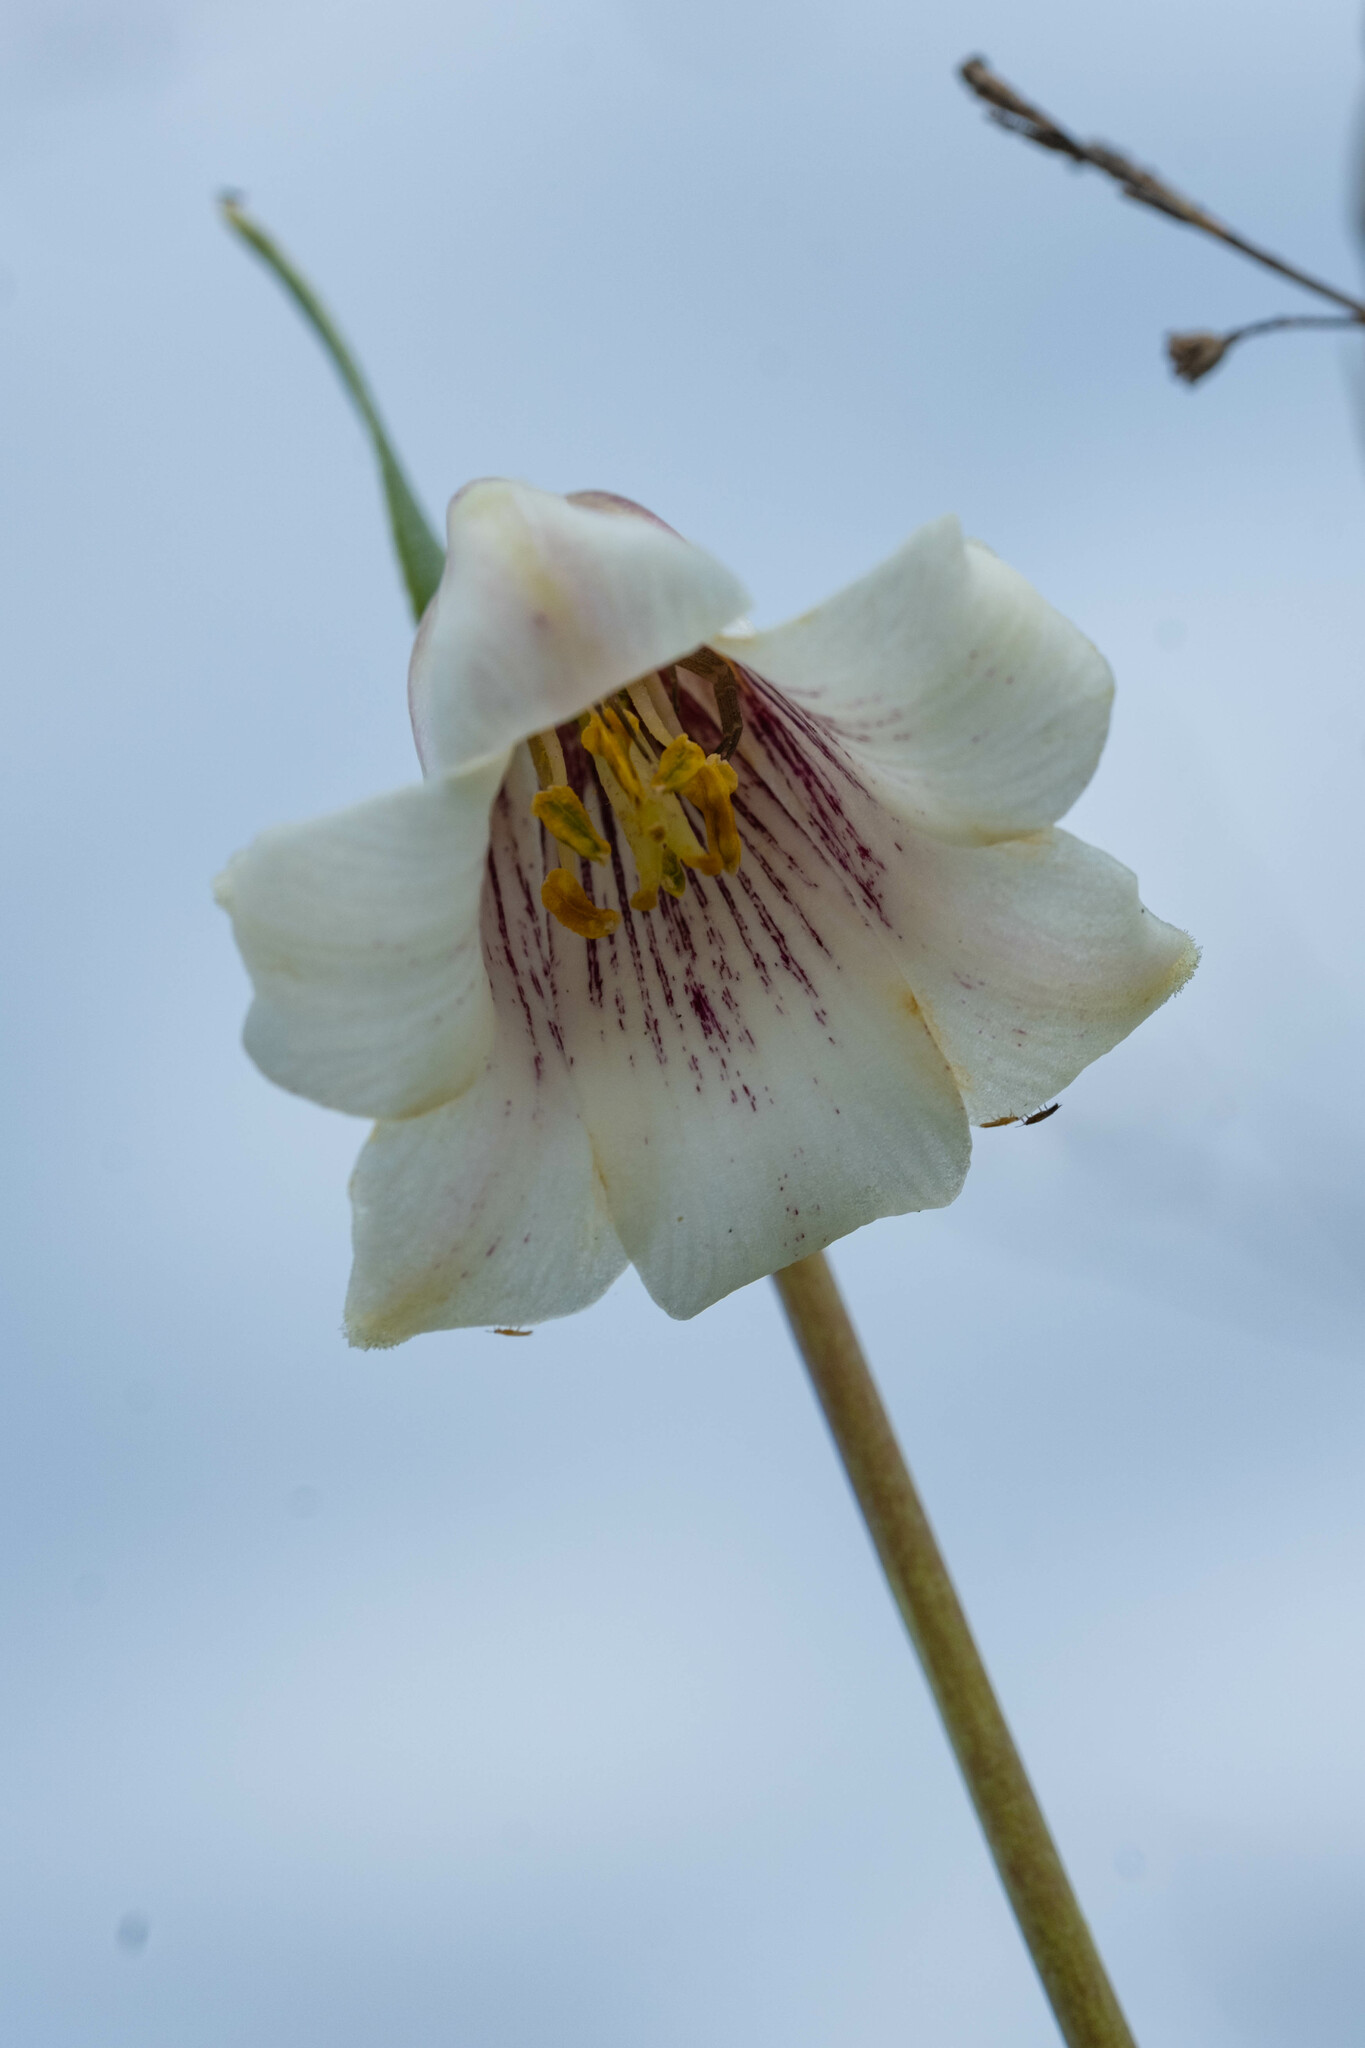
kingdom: Plantae
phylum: Tracheophyta
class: Liliopsida
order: Liliales
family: Liliaceae
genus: Fritillaria
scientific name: Fritillaria striata
